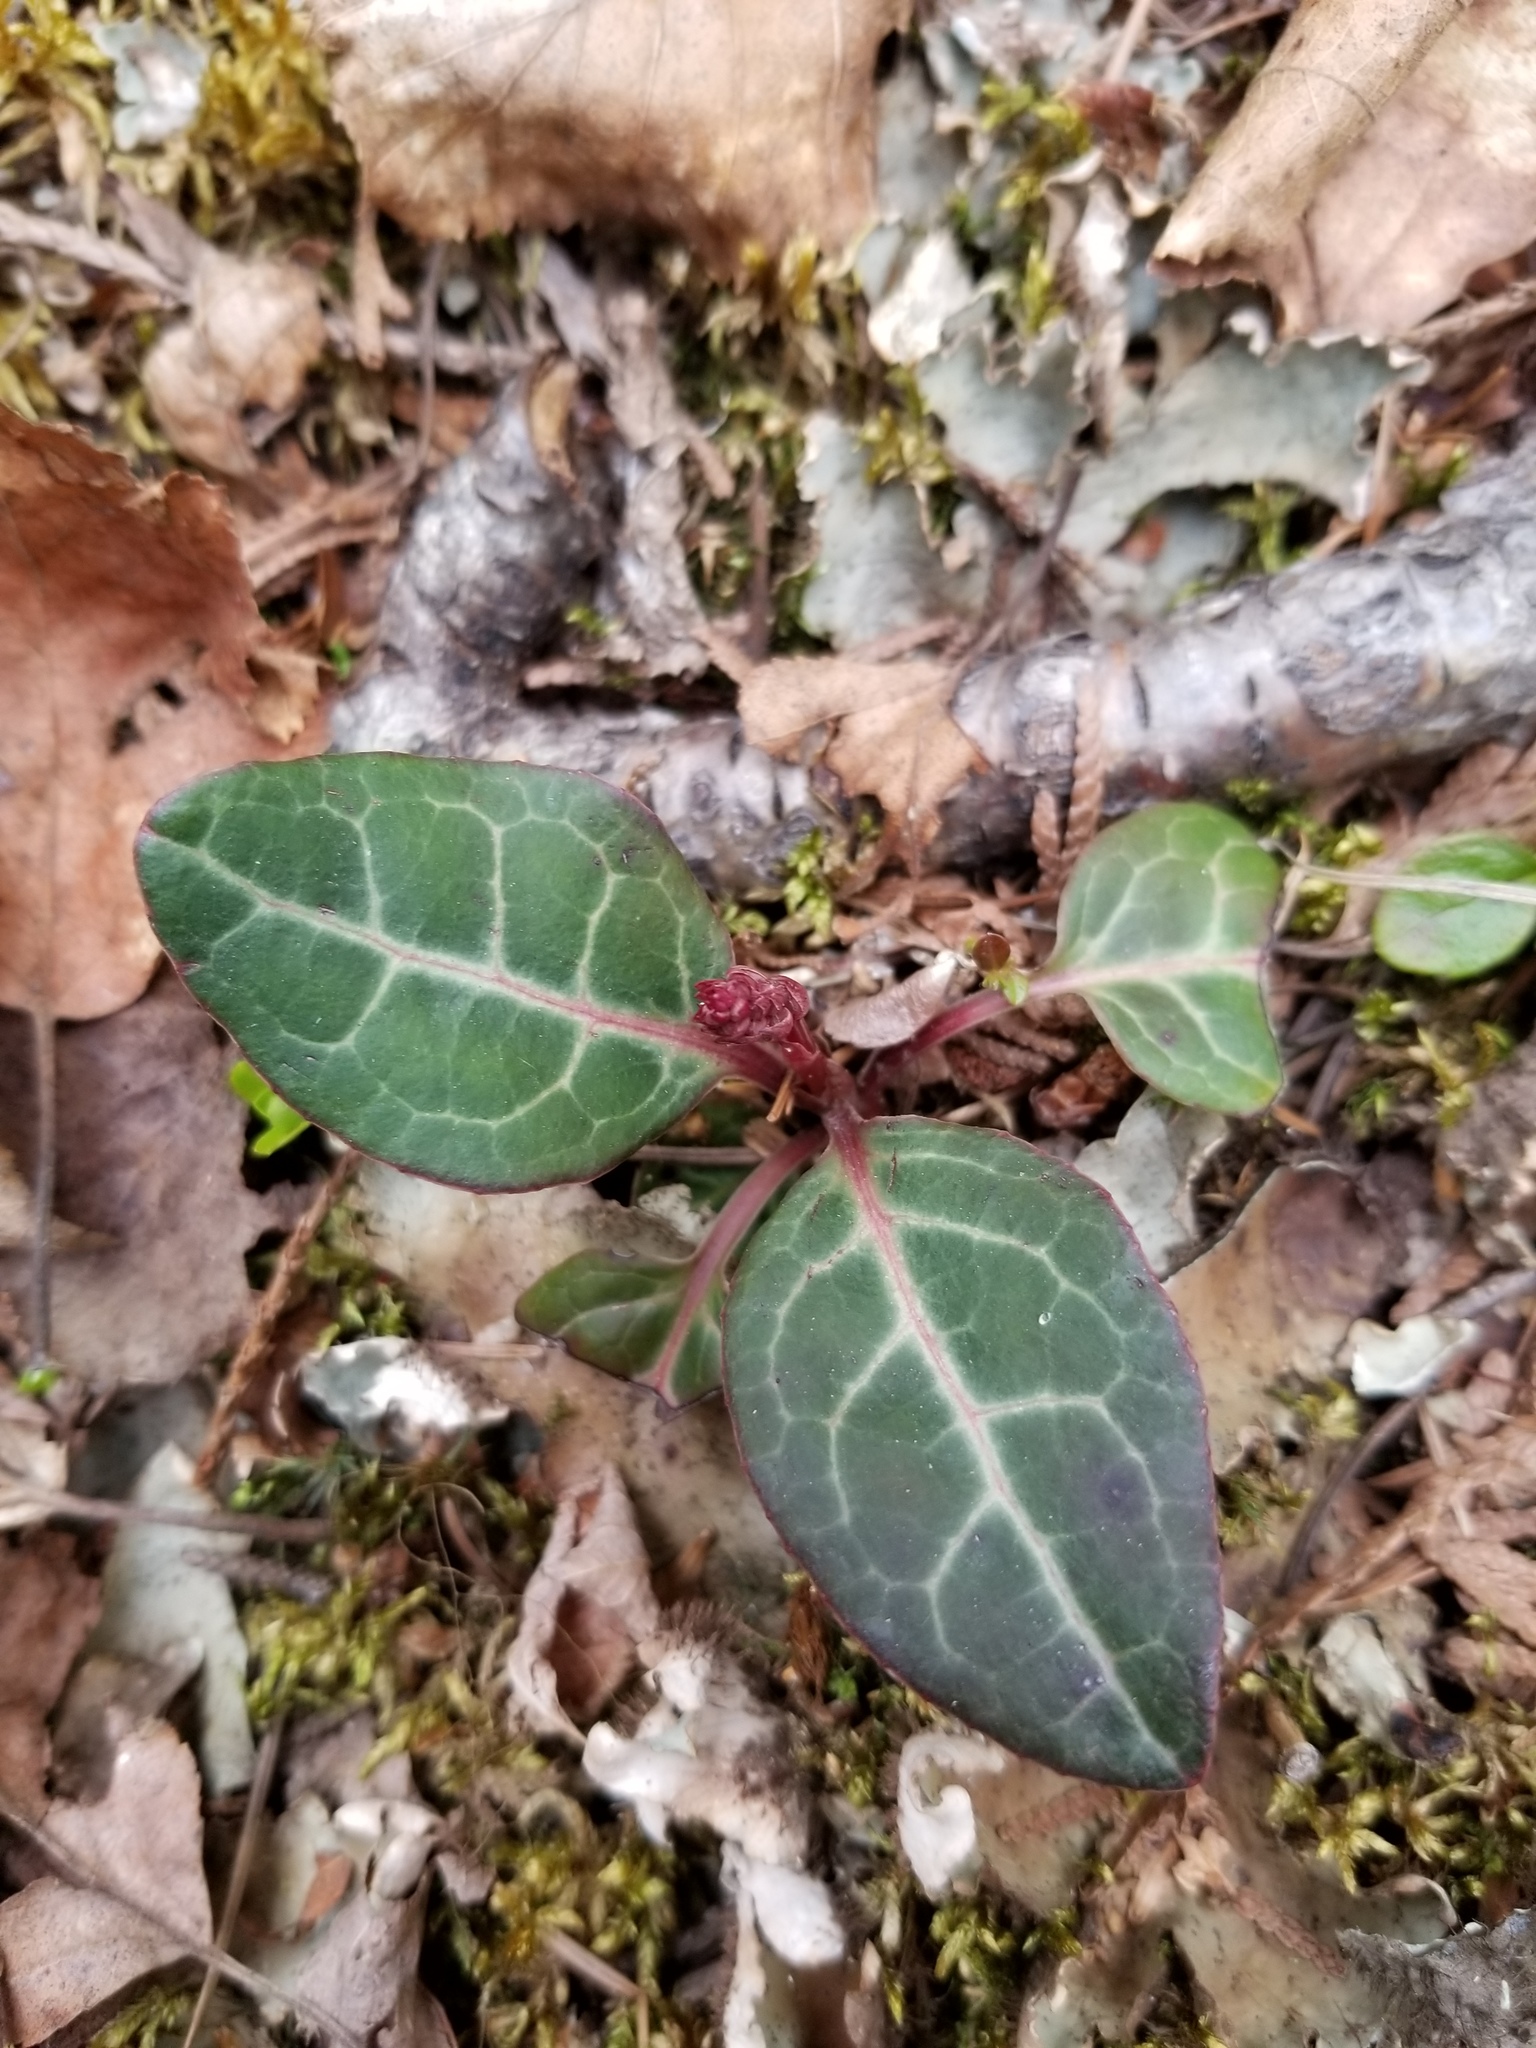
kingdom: Plantae
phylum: Tracheophyta
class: Magnoliopsida
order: Ericales
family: Ericaceae
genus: Pyrola
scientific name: Pyrola picta
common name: White-vein wintergreen
